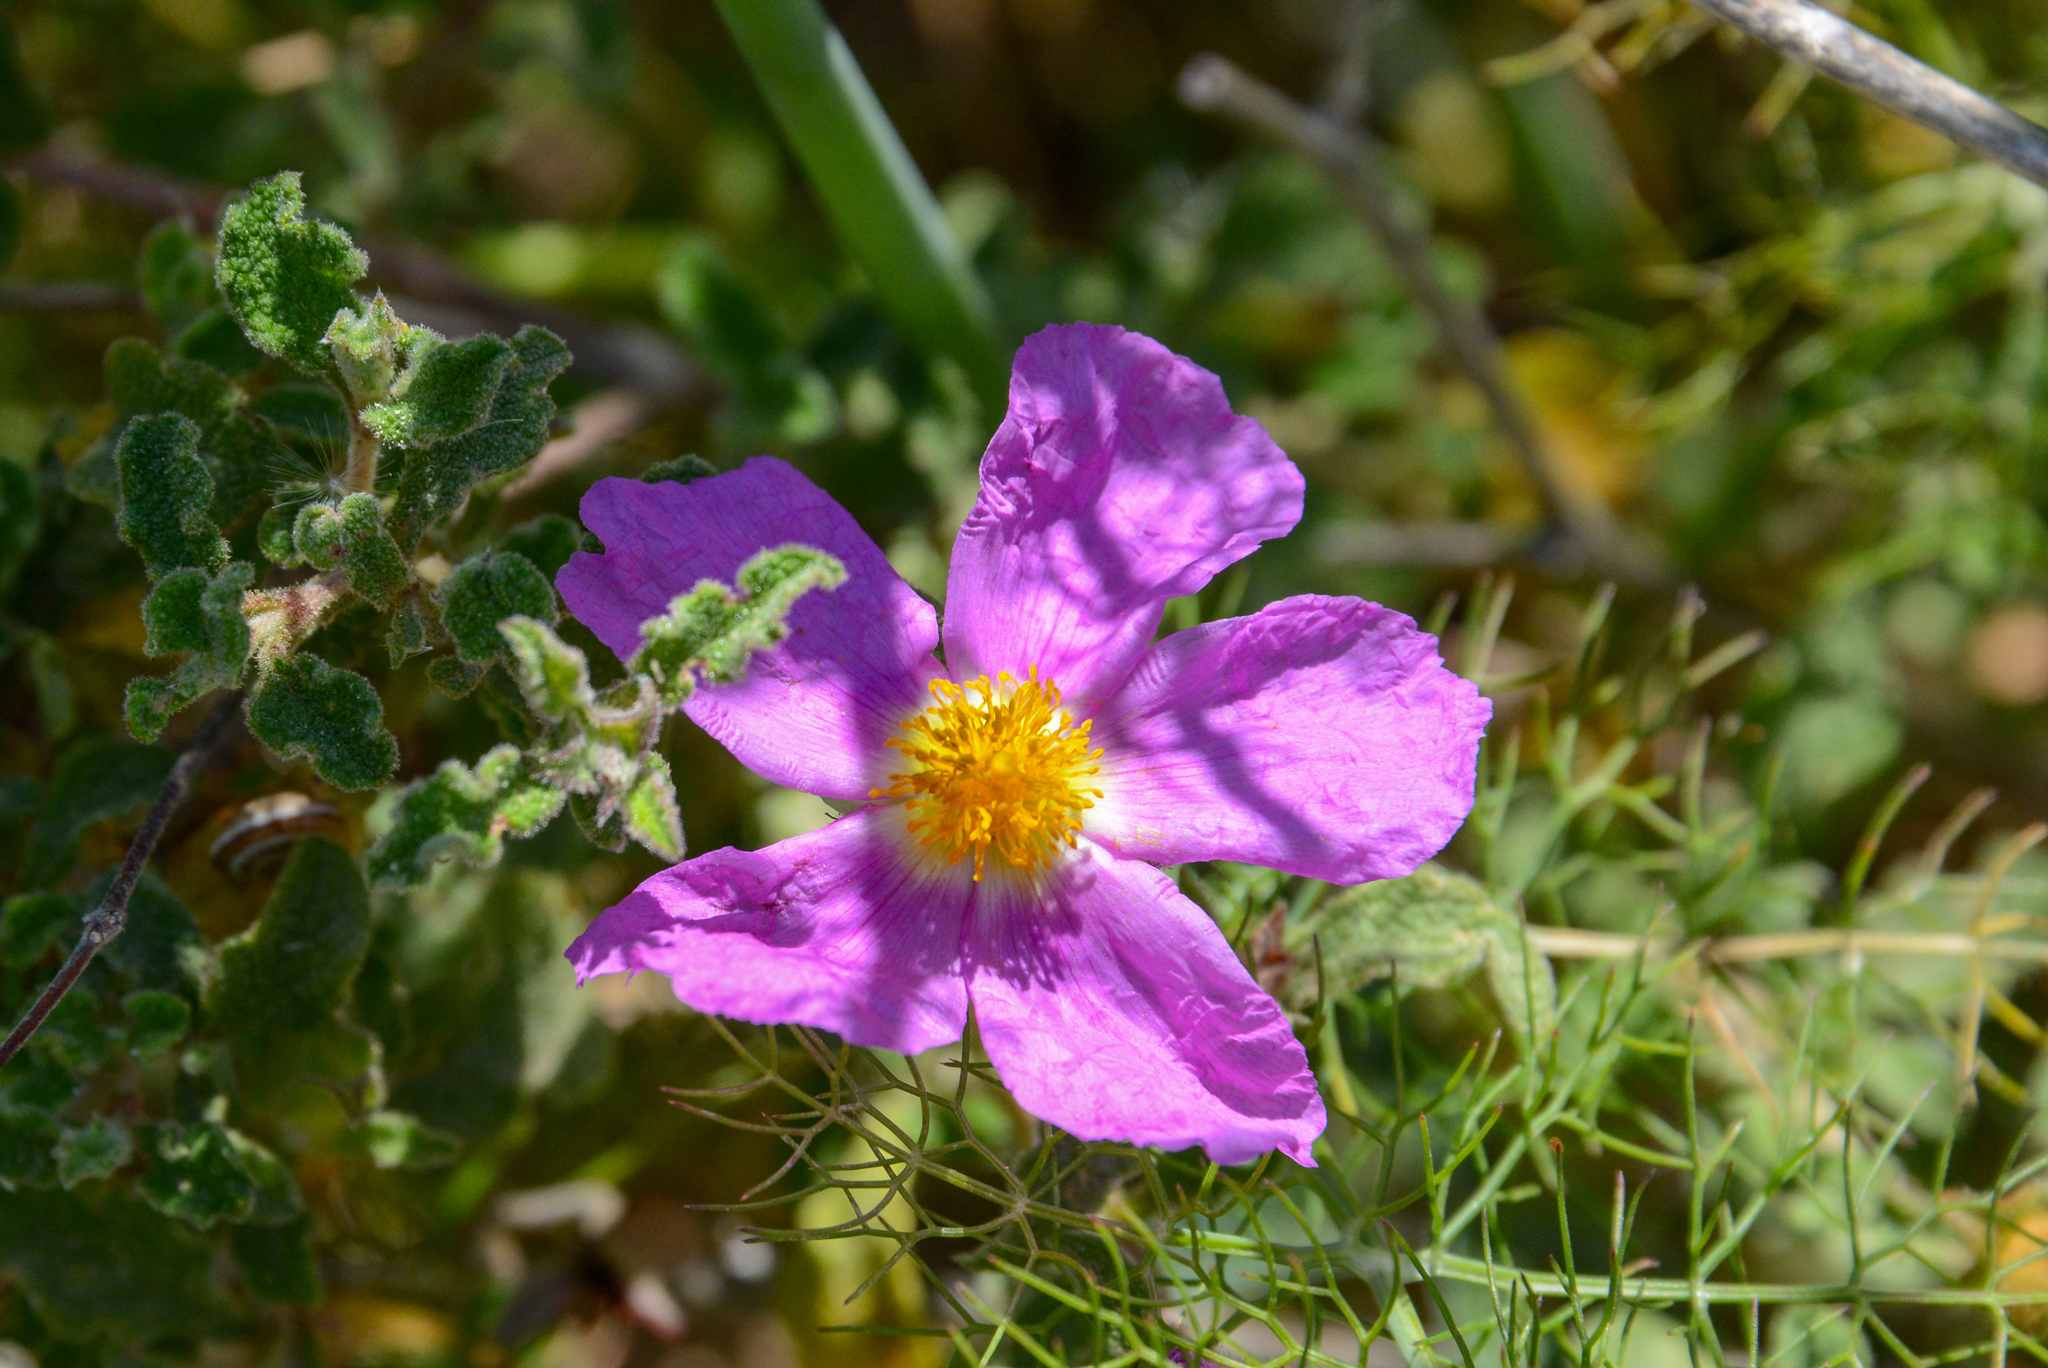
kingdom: Plantae
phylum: Tracheophyta
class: Magnoliopsida
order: Malvales
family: Cistaceae
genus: Cistus
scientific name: Cistus creticus
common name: Cretan rockrose
